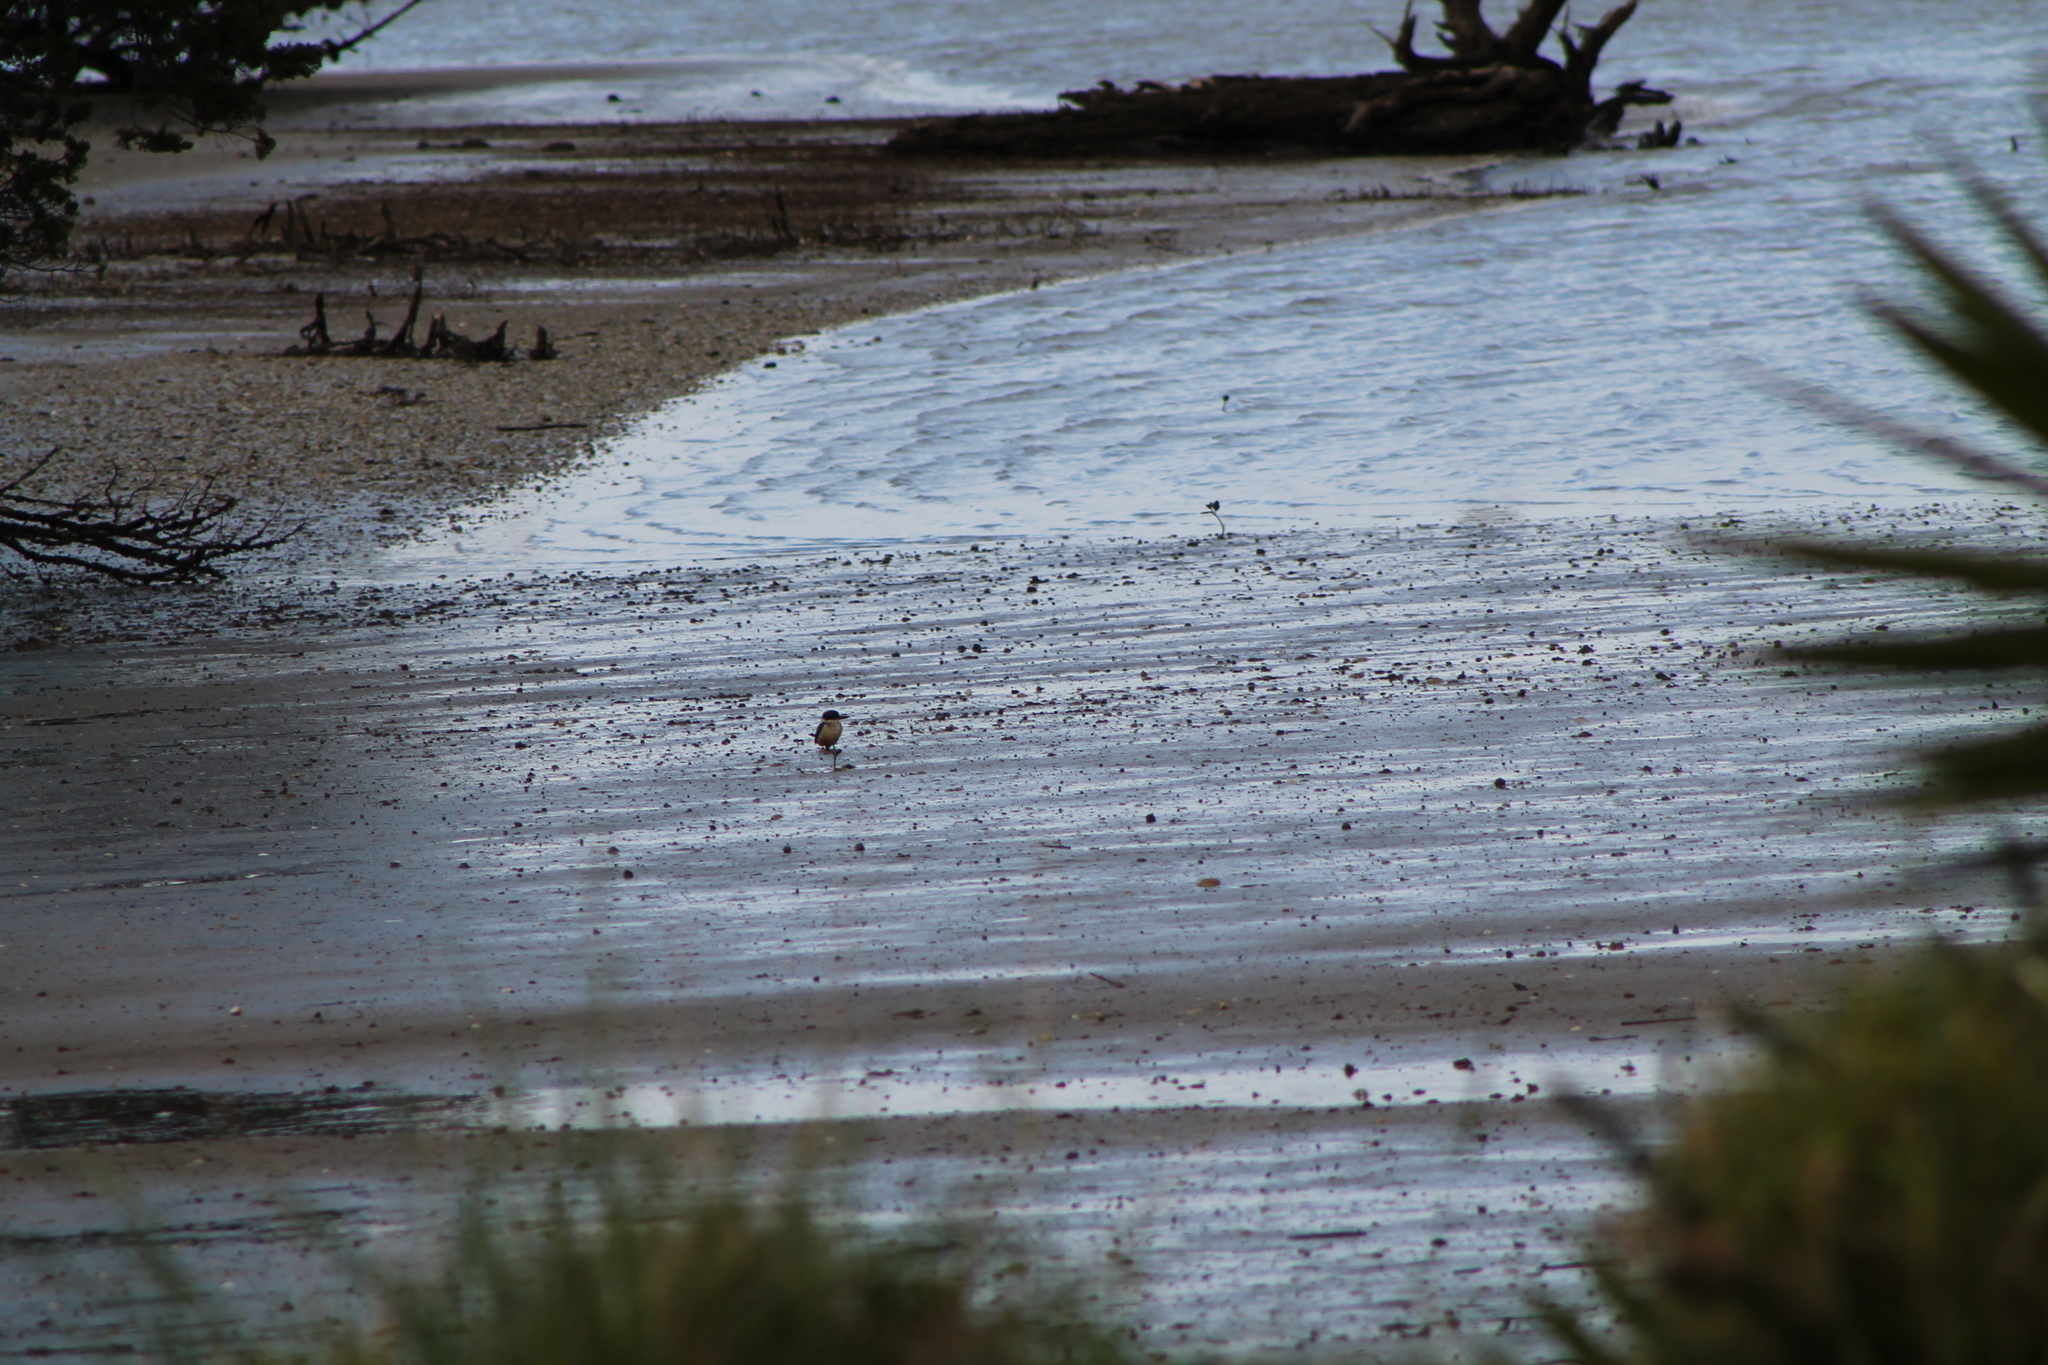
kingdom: Animalia
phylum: Chordata
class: Aves
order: Coraciiformes
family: Alcedinidae
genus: Todiramphus
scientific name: Todiramphus sanctus
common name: Sacred kingfisher
